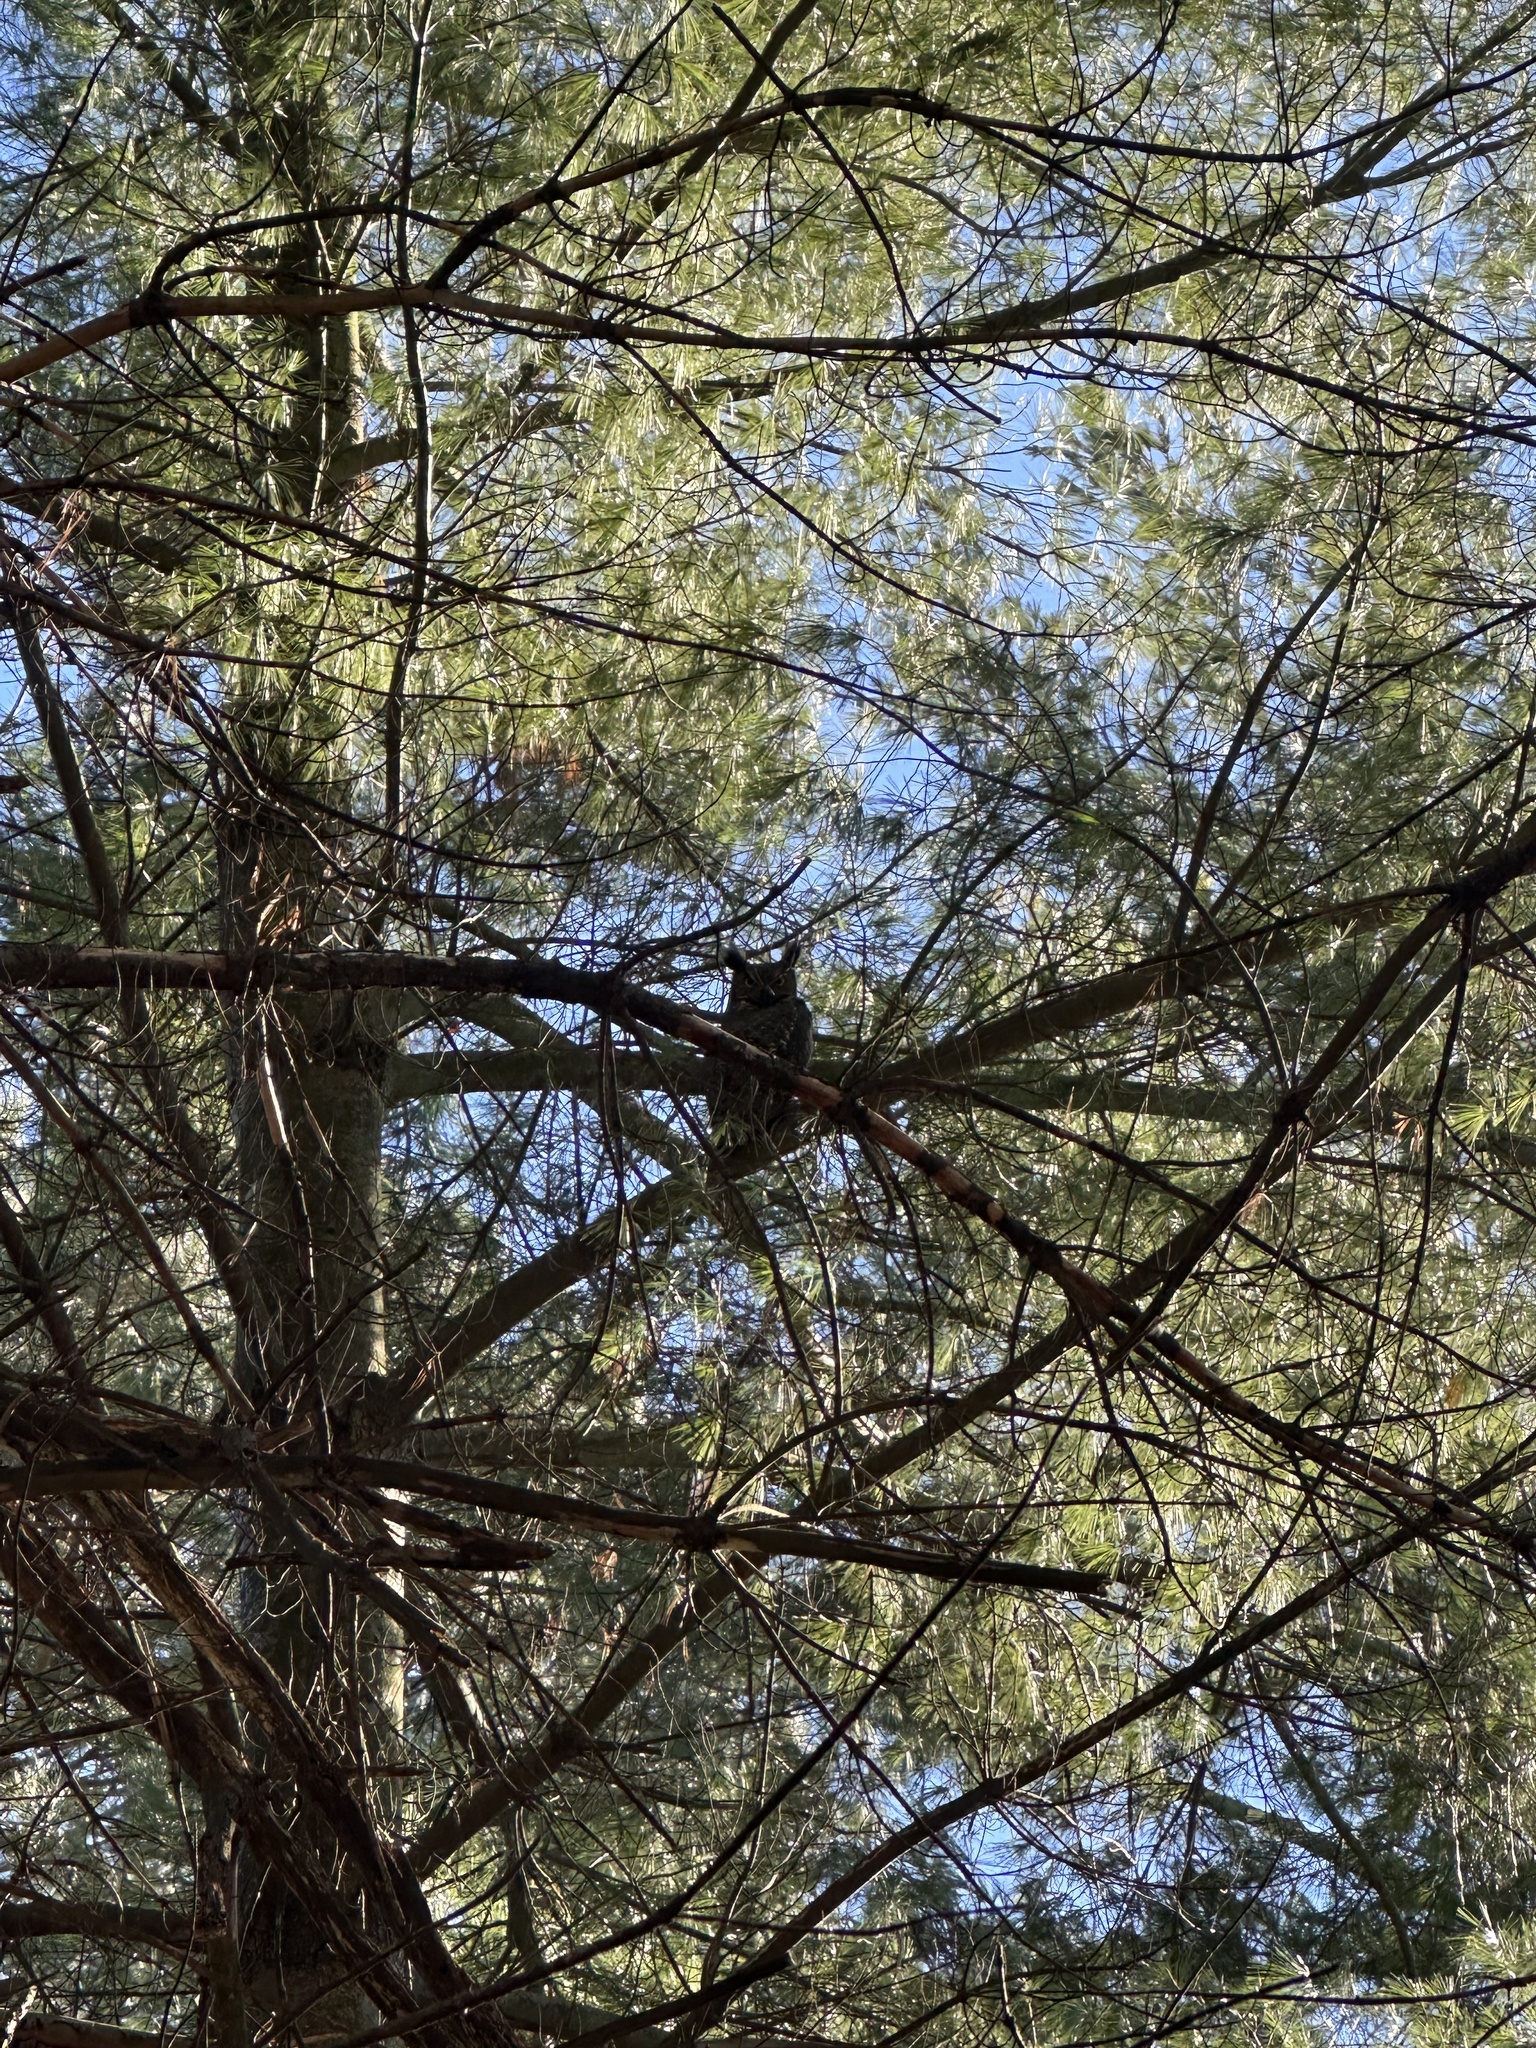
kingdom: Animalia
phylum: Chordata
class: Aves
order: Strigiformes
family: Strigidae
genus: Bubo
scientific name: Bubo virginianus
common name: Great horned owl
